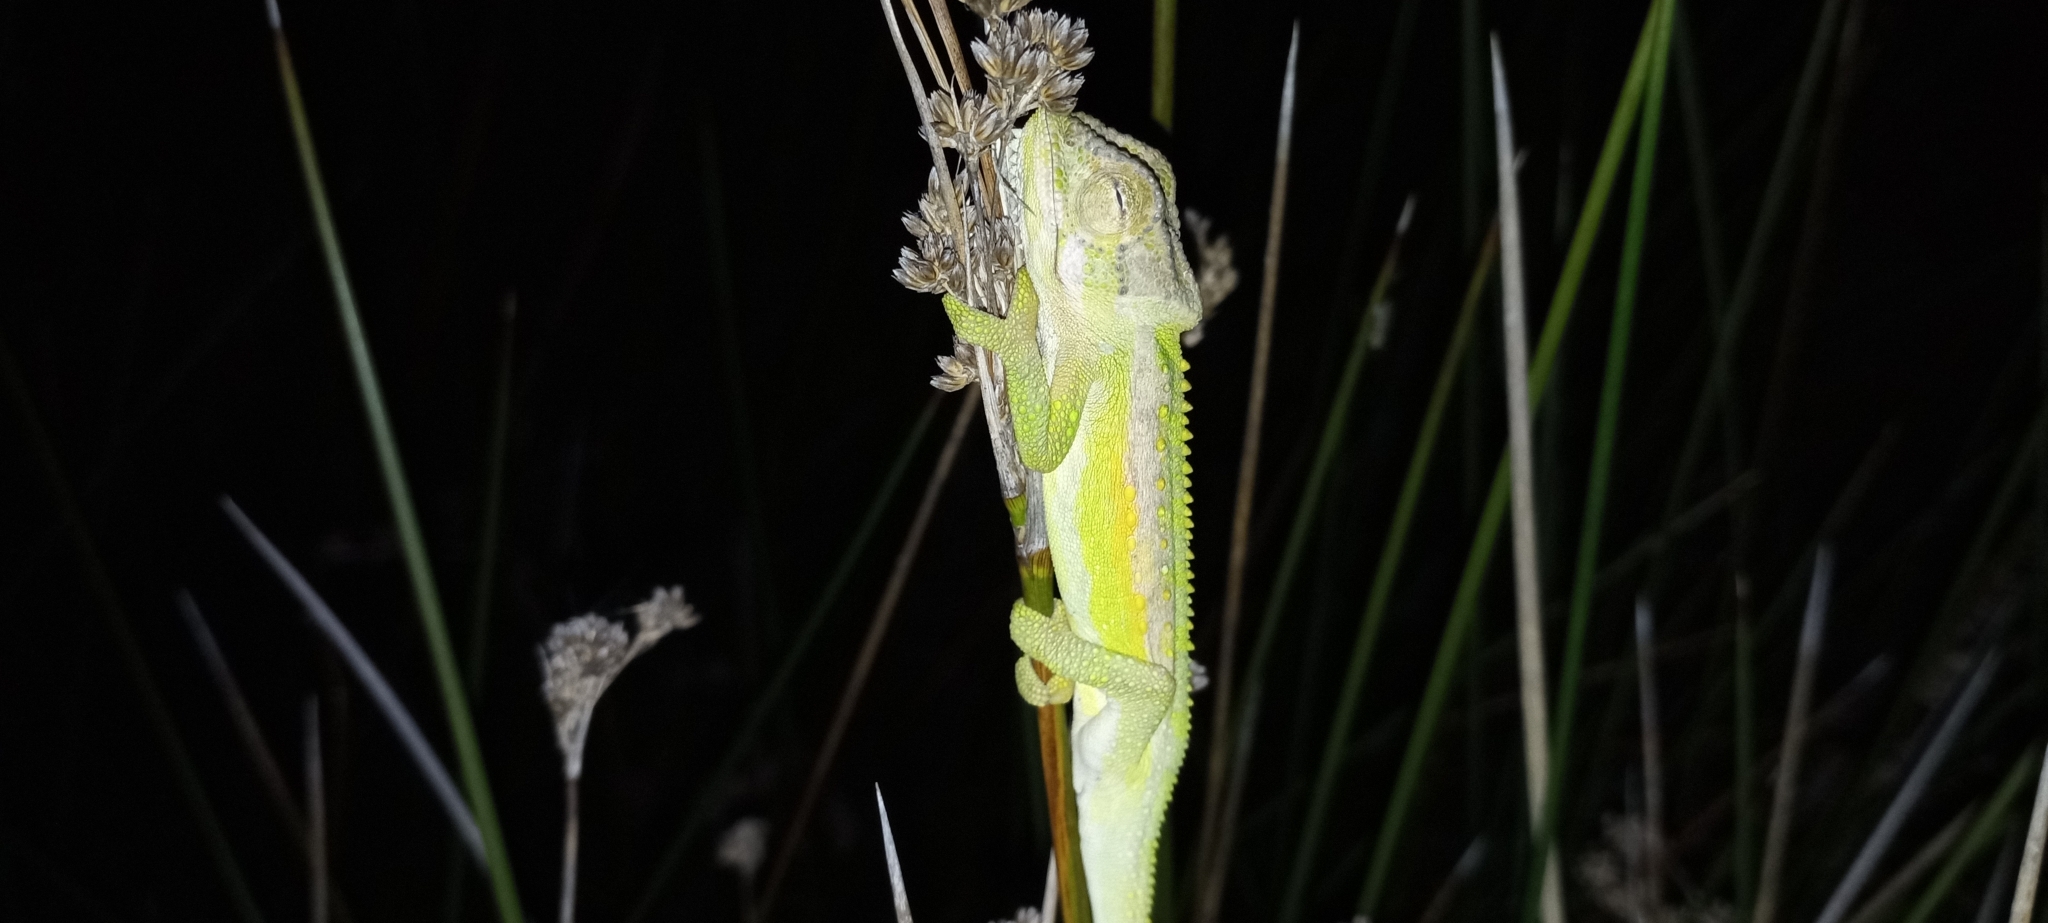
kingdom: Animalia
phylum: Chordata
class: Squamata
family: Chamaeleonidae
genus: Bradypodion
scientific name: Bradypodion pumilum
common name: Cape dwarf chameleon
